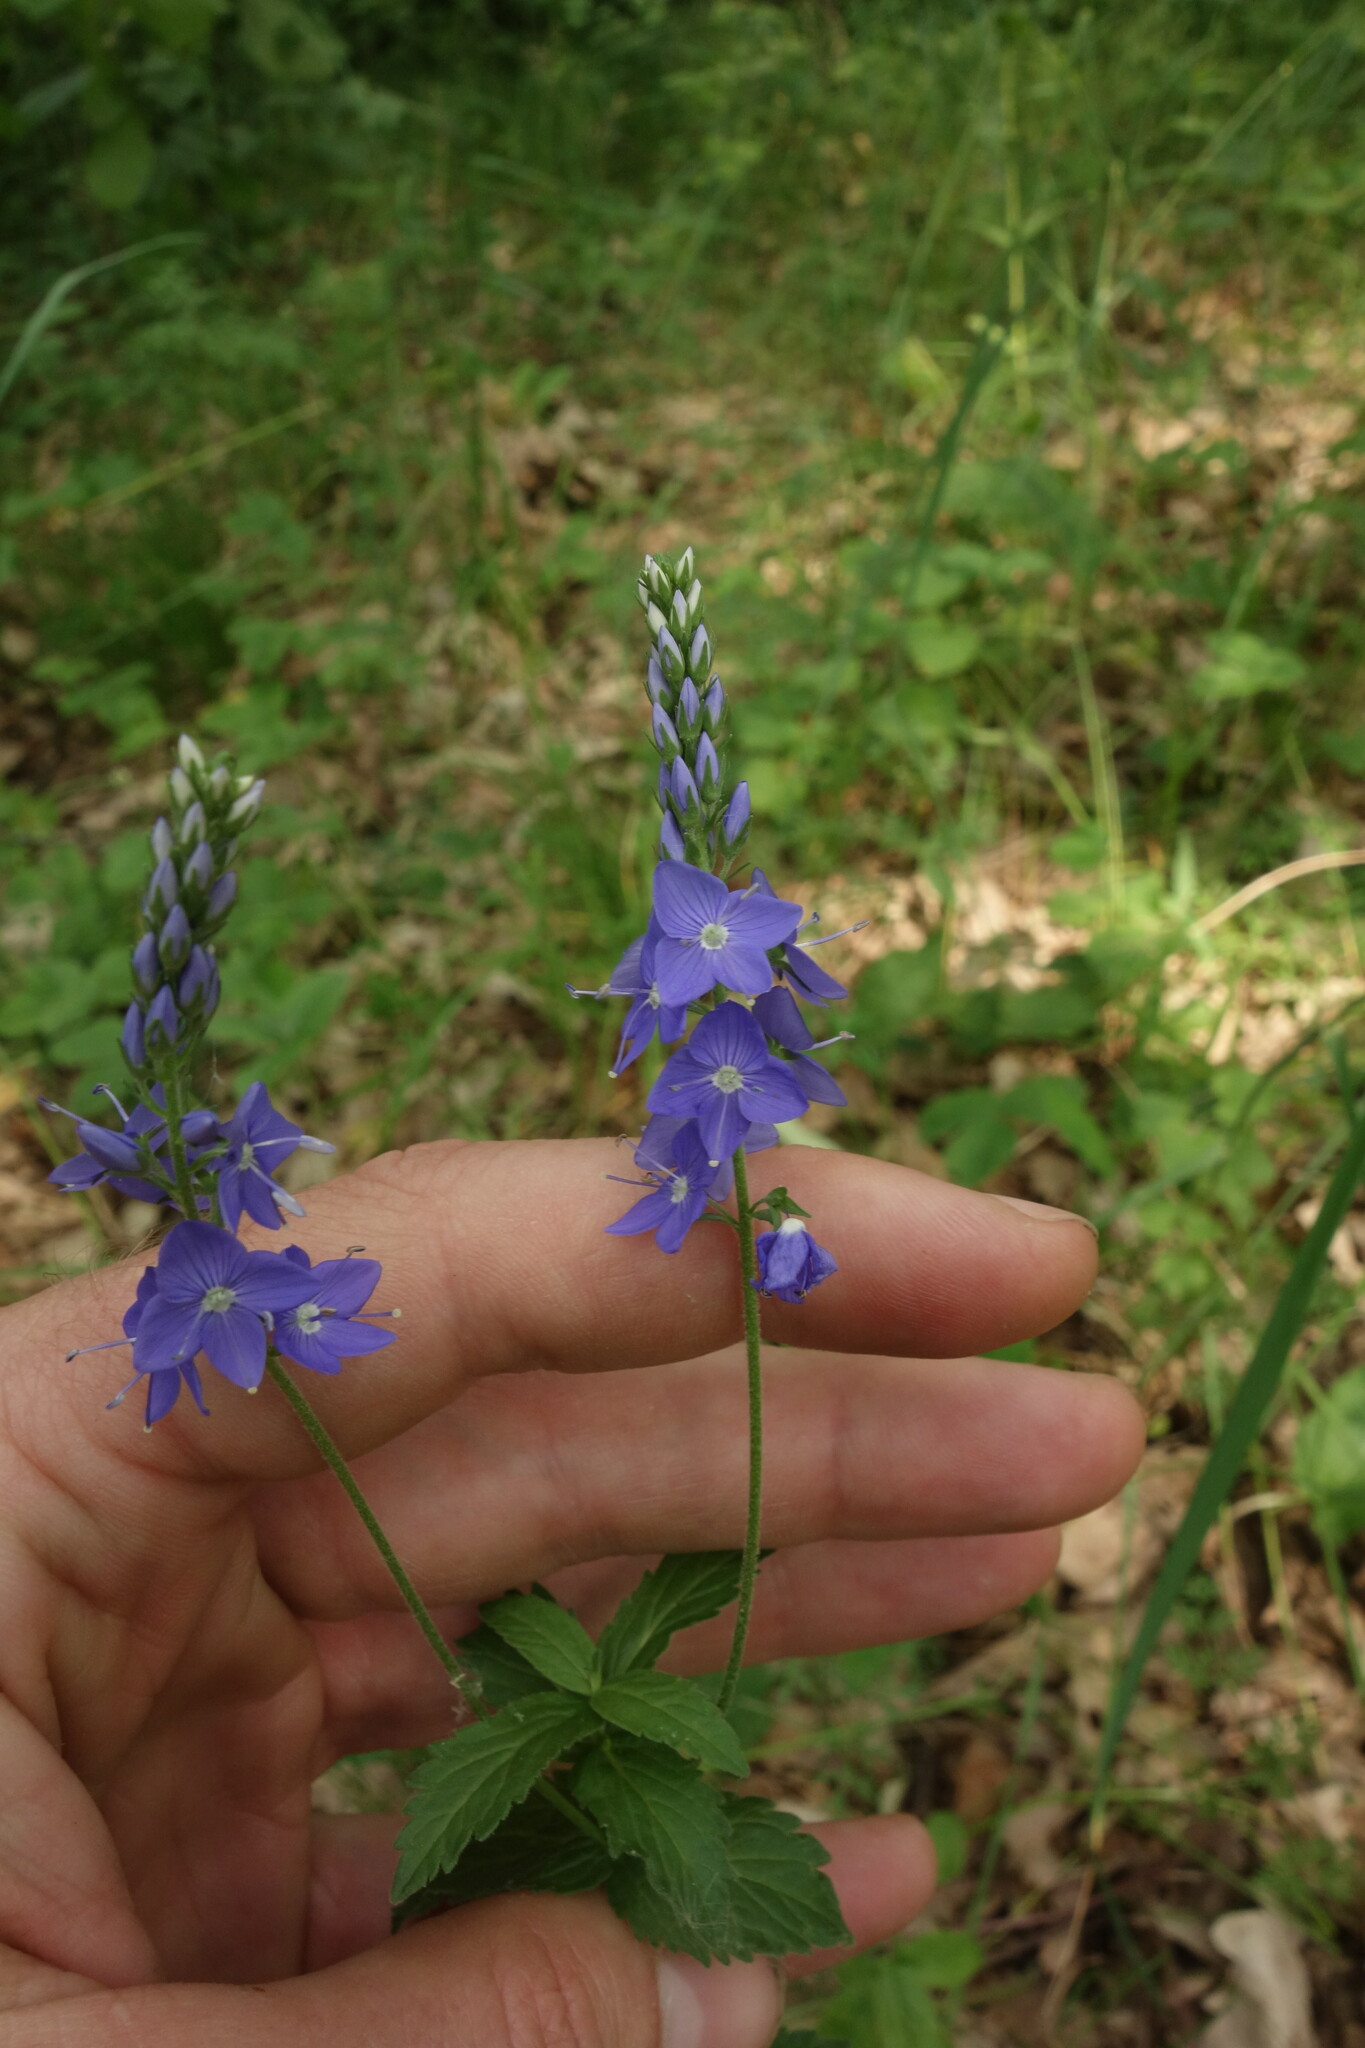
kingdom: Plantae
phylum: Tracheophyta
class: Magnoliopsida
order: Lamiales
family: Plantaginaceae
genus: Veronica
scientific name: Veronica teucrium
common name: Large speedwell
